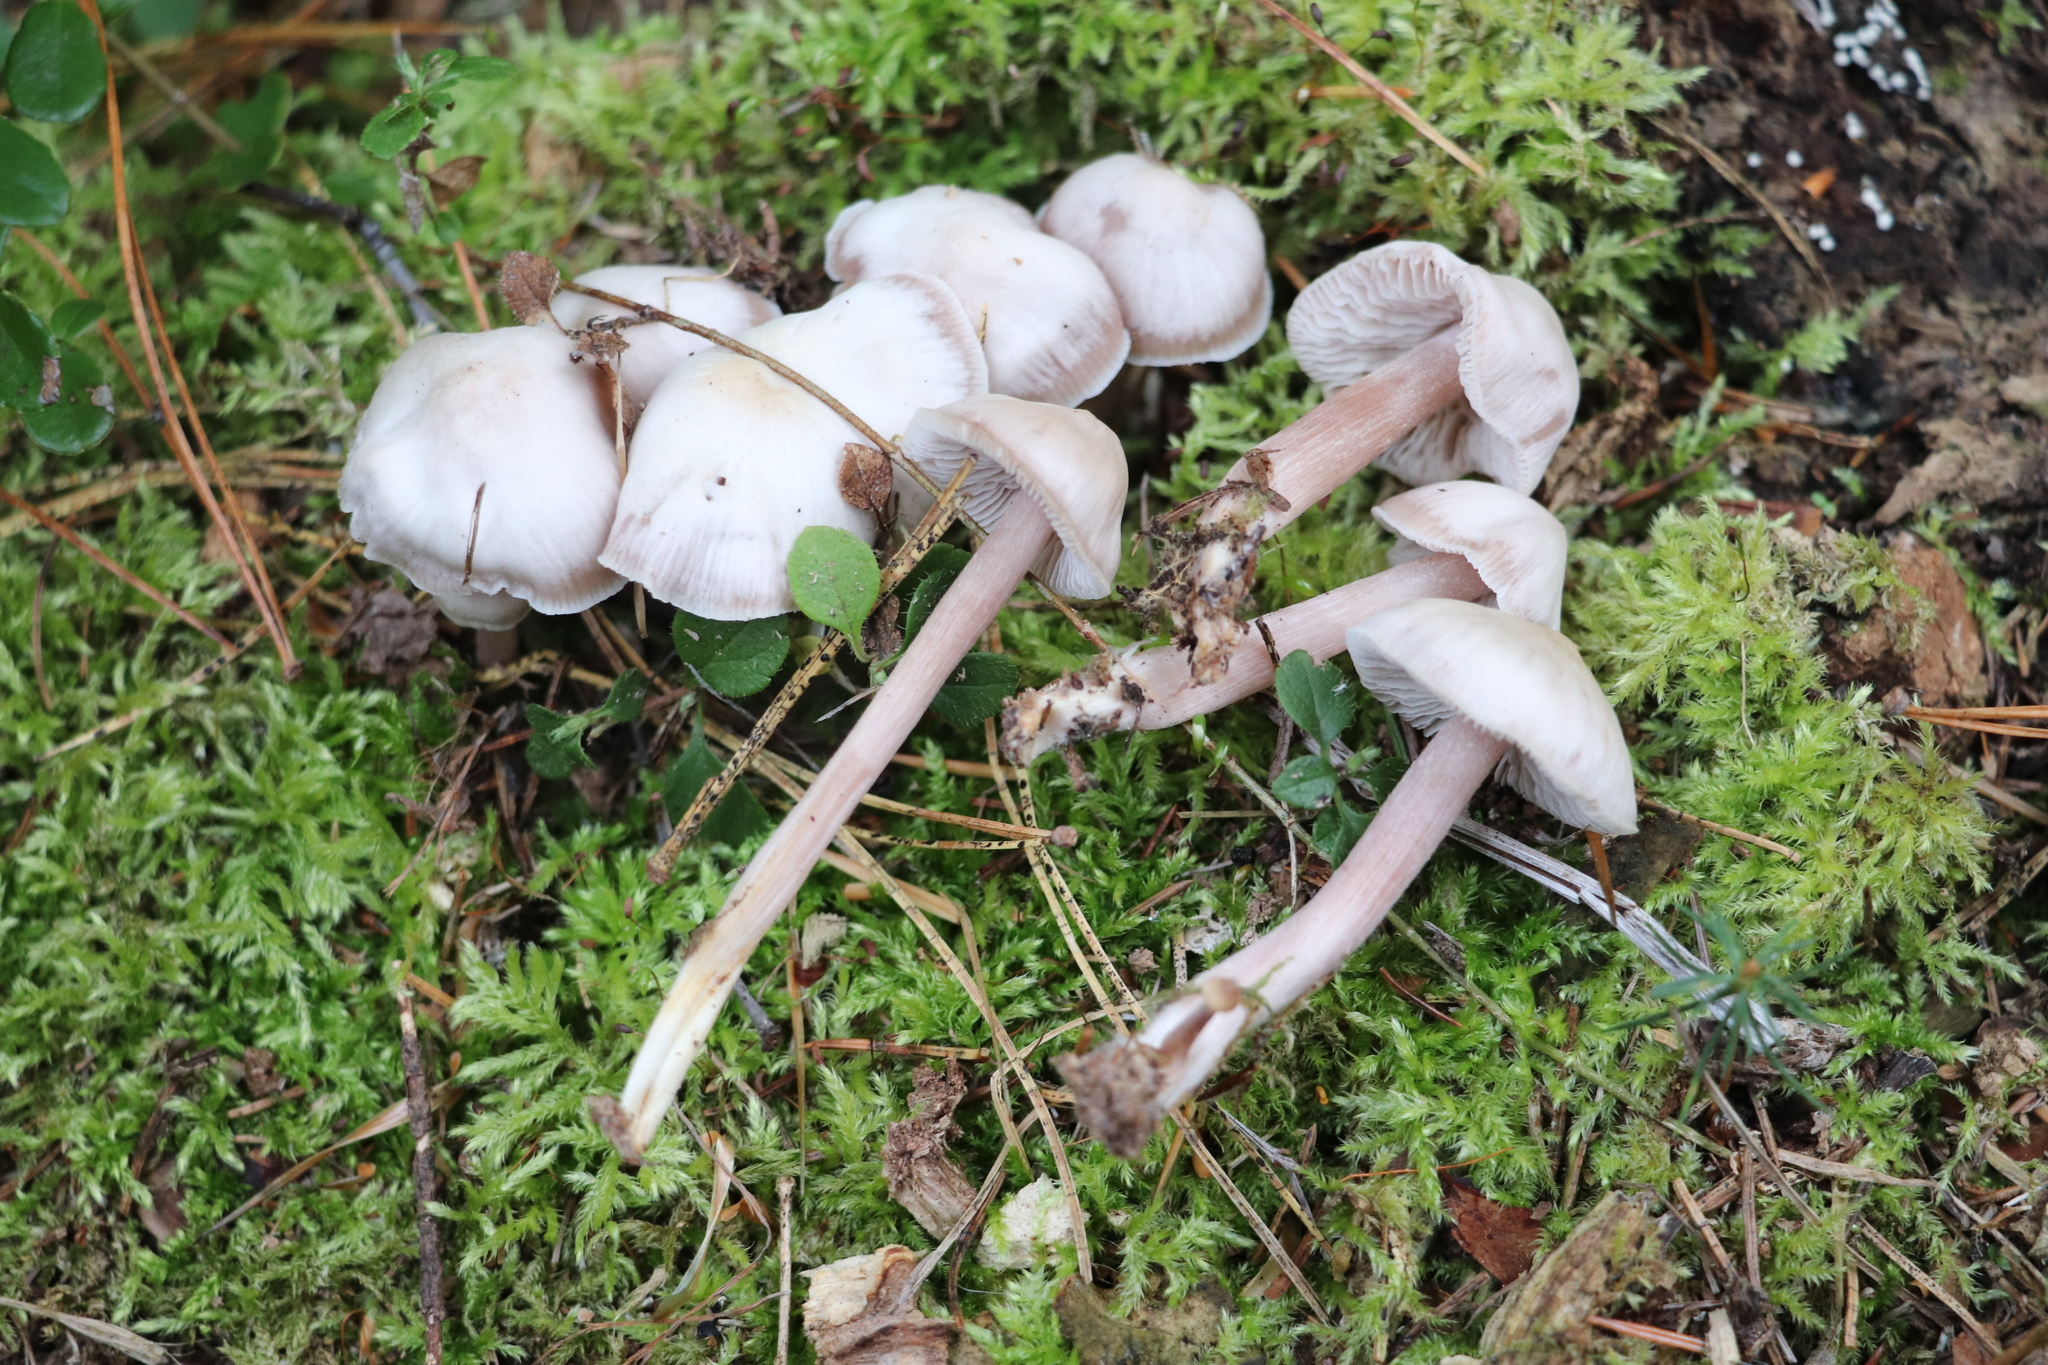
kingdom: Fungi
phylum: Basidiomycota
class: Agaricomycetes
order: Agaricales
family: Mycenaceae
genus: Mycena
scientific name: Mycena pura
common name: Lilac bonnet
